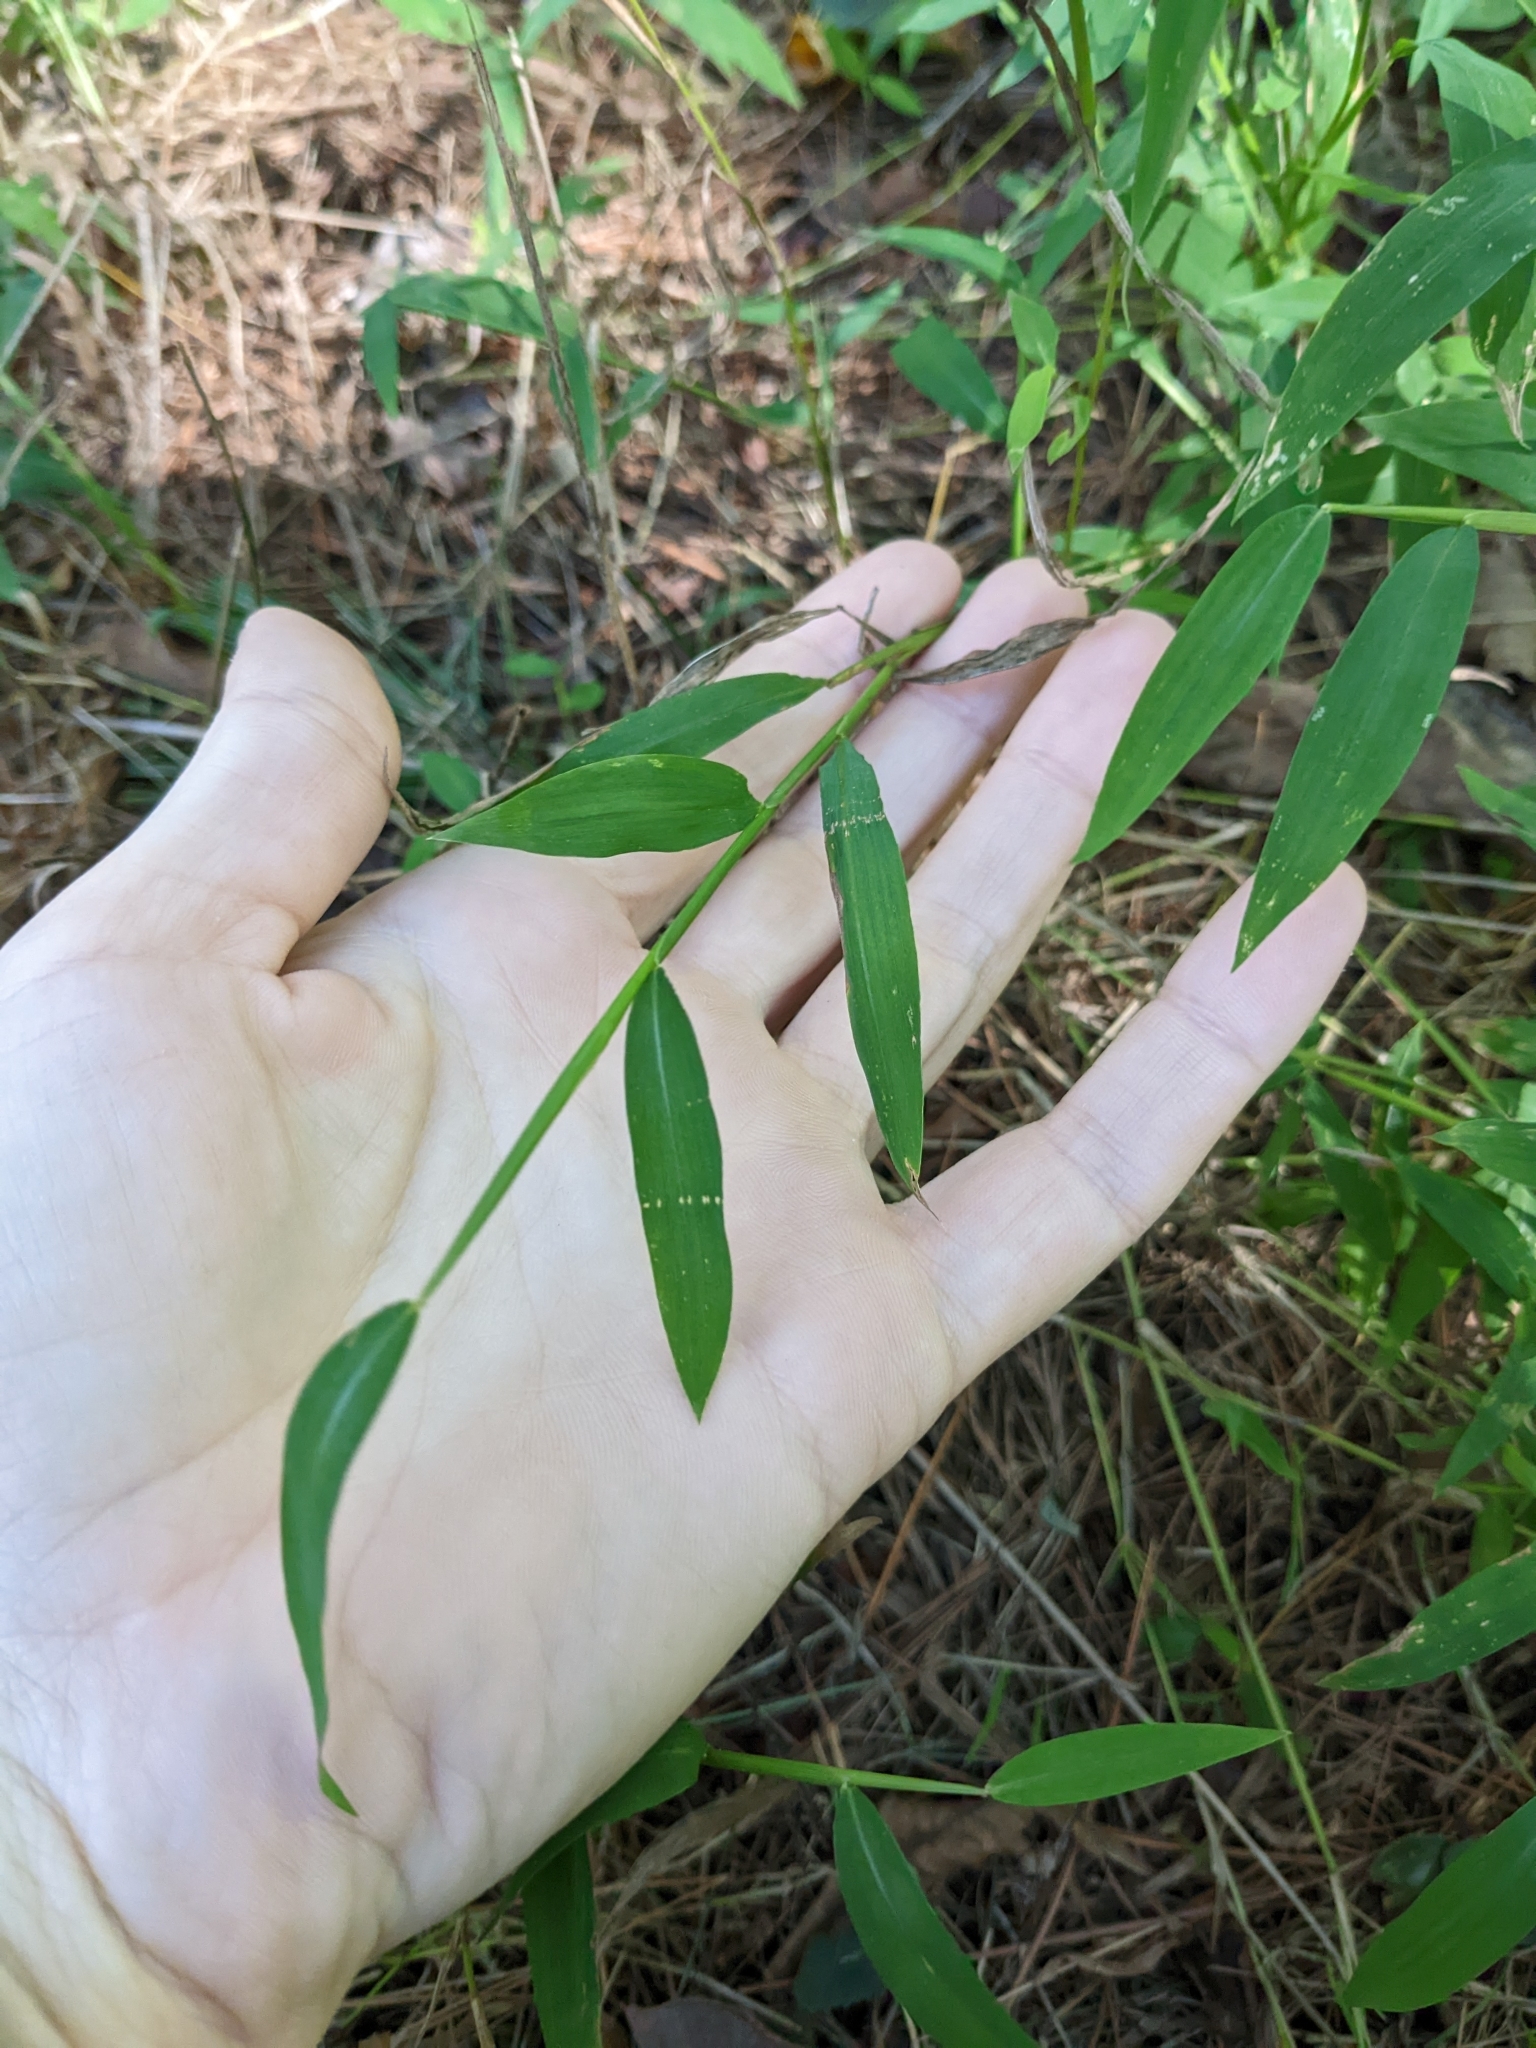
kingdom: Plantae
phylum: Tracheophyta
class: Liliopsida
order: Poales
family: Poaceae
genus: Microstegium
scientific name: Microstegium vimineum
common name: Japanese stiltgrass
